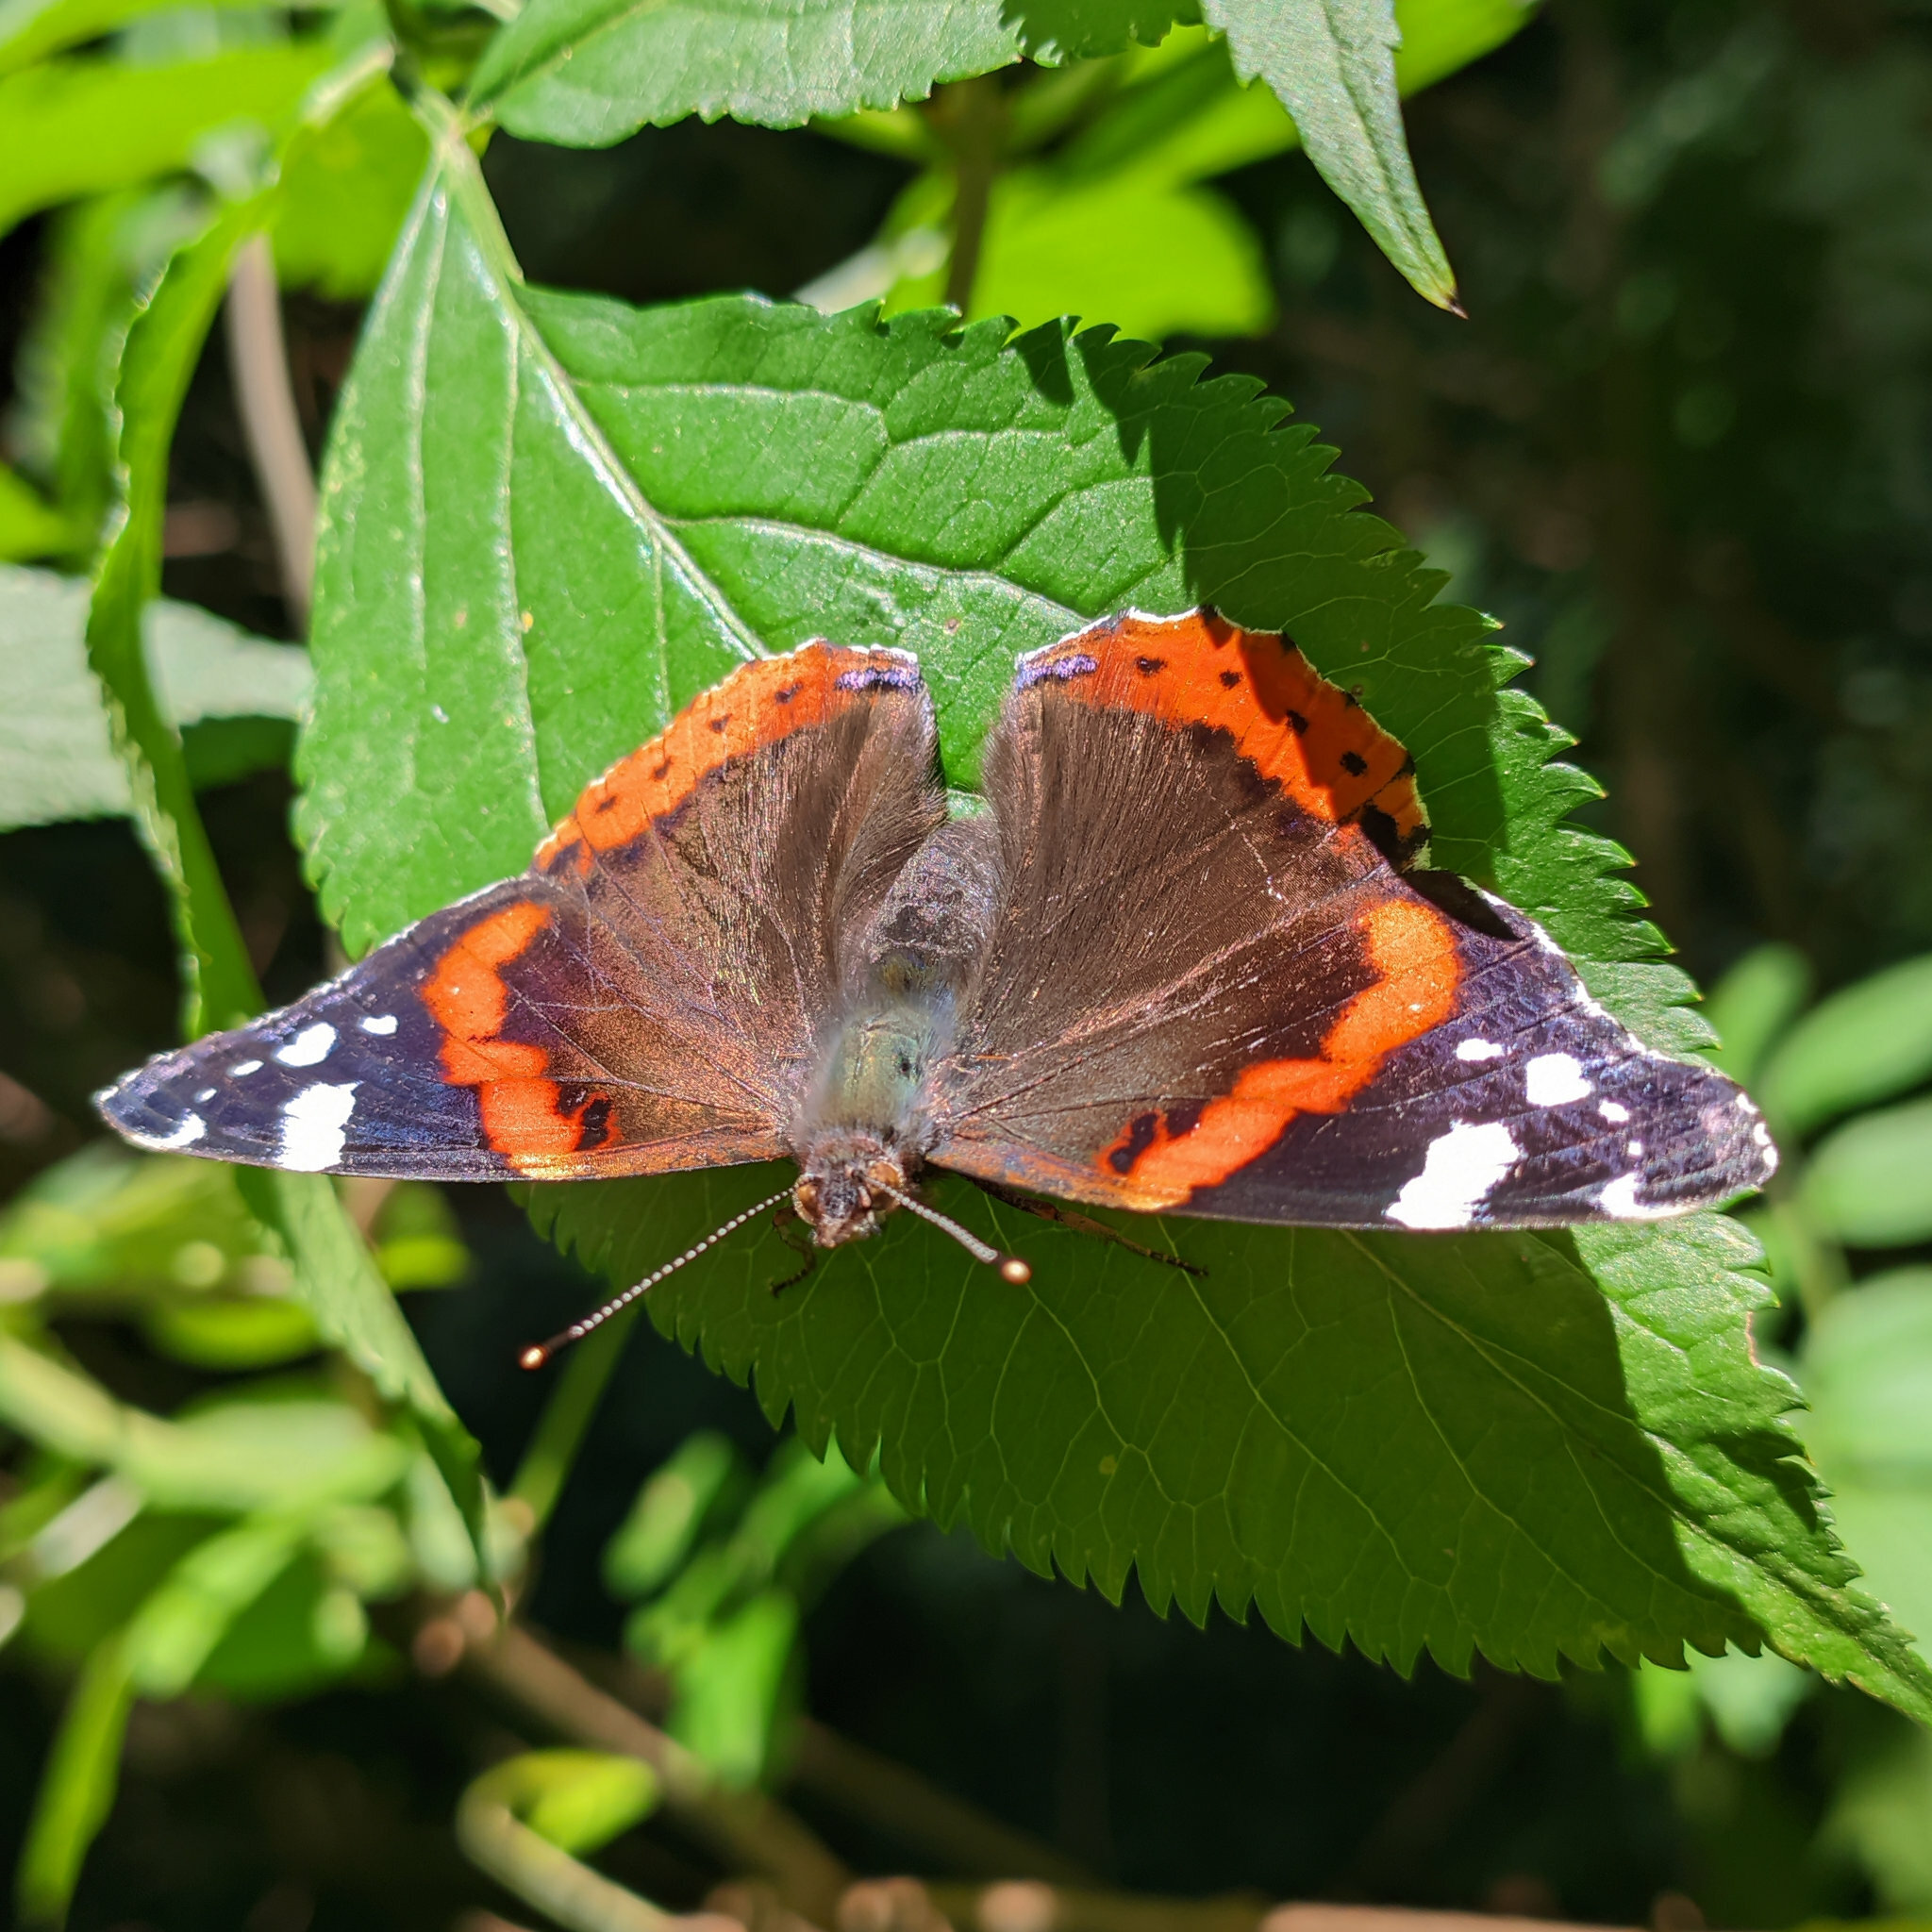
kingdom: Animalia
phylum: Arthropoda
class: Insecta
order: Lepidoptera
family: Nymphalidae
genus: Vanessa
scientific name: Vanessa atalanta
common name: Red admiral
